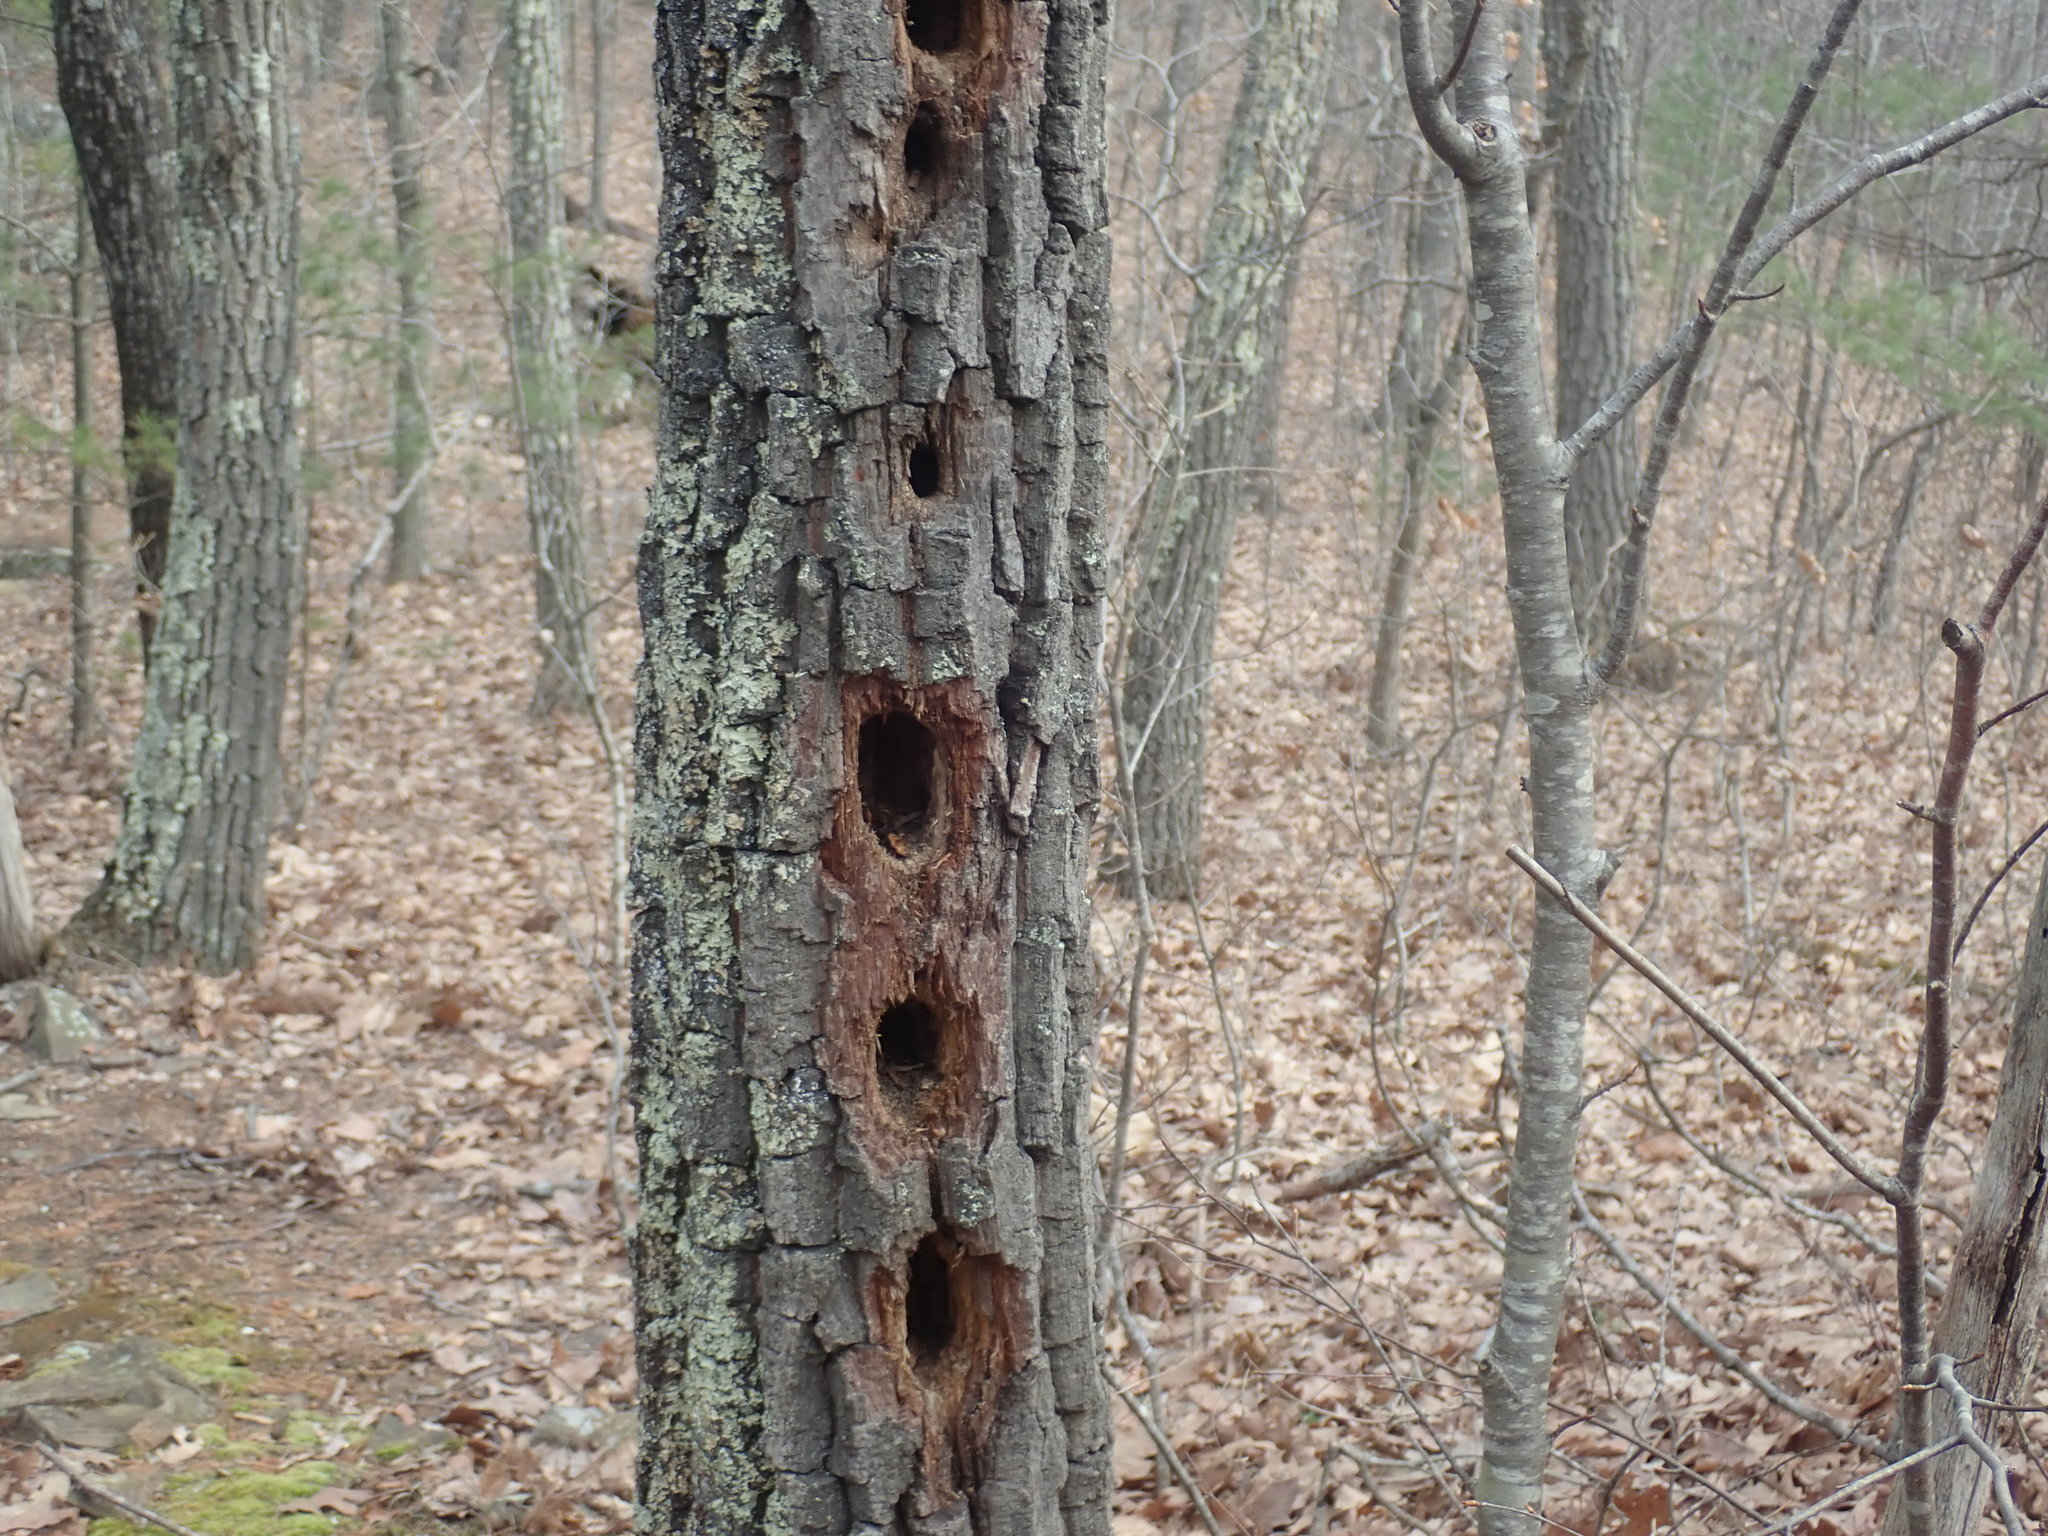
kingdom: Animalia
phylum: Chordata
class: Aves
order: Piciformes
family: Picidae
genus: Dryocopus
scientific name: Dryocopus pileatus
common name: Pileated woodpecker
